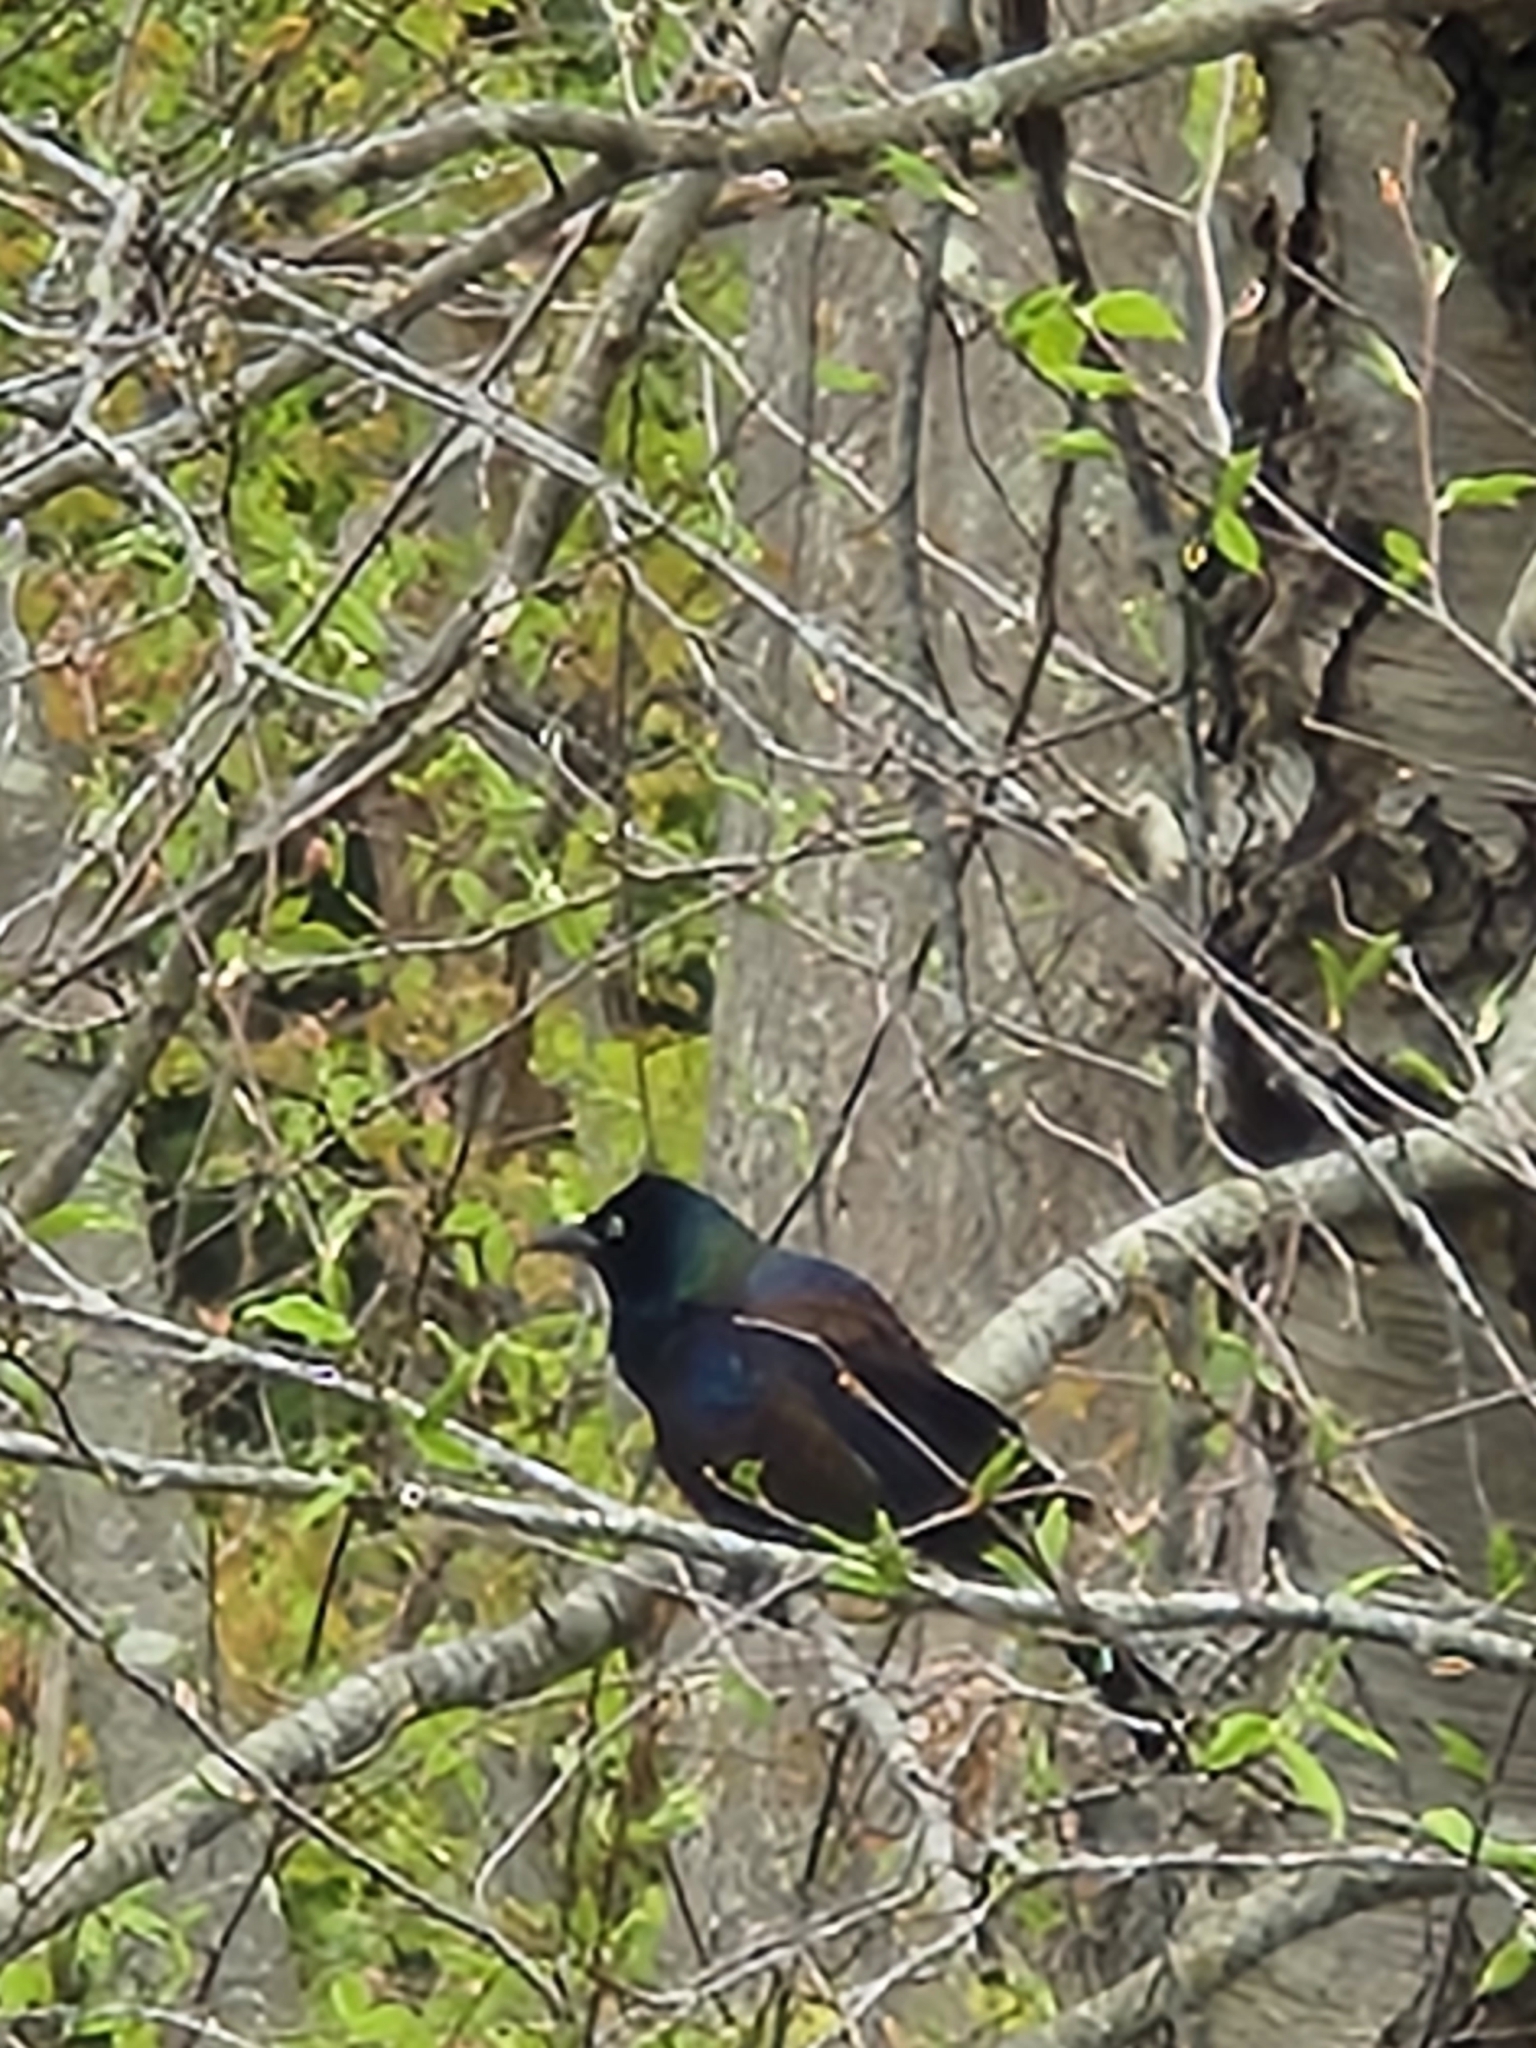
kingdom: Animalia
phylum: Chordata
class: Aves
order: Passeriformes
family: Icteridae
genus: Quiscalus
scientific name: Quiscalus quiscula
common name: Common grackle
